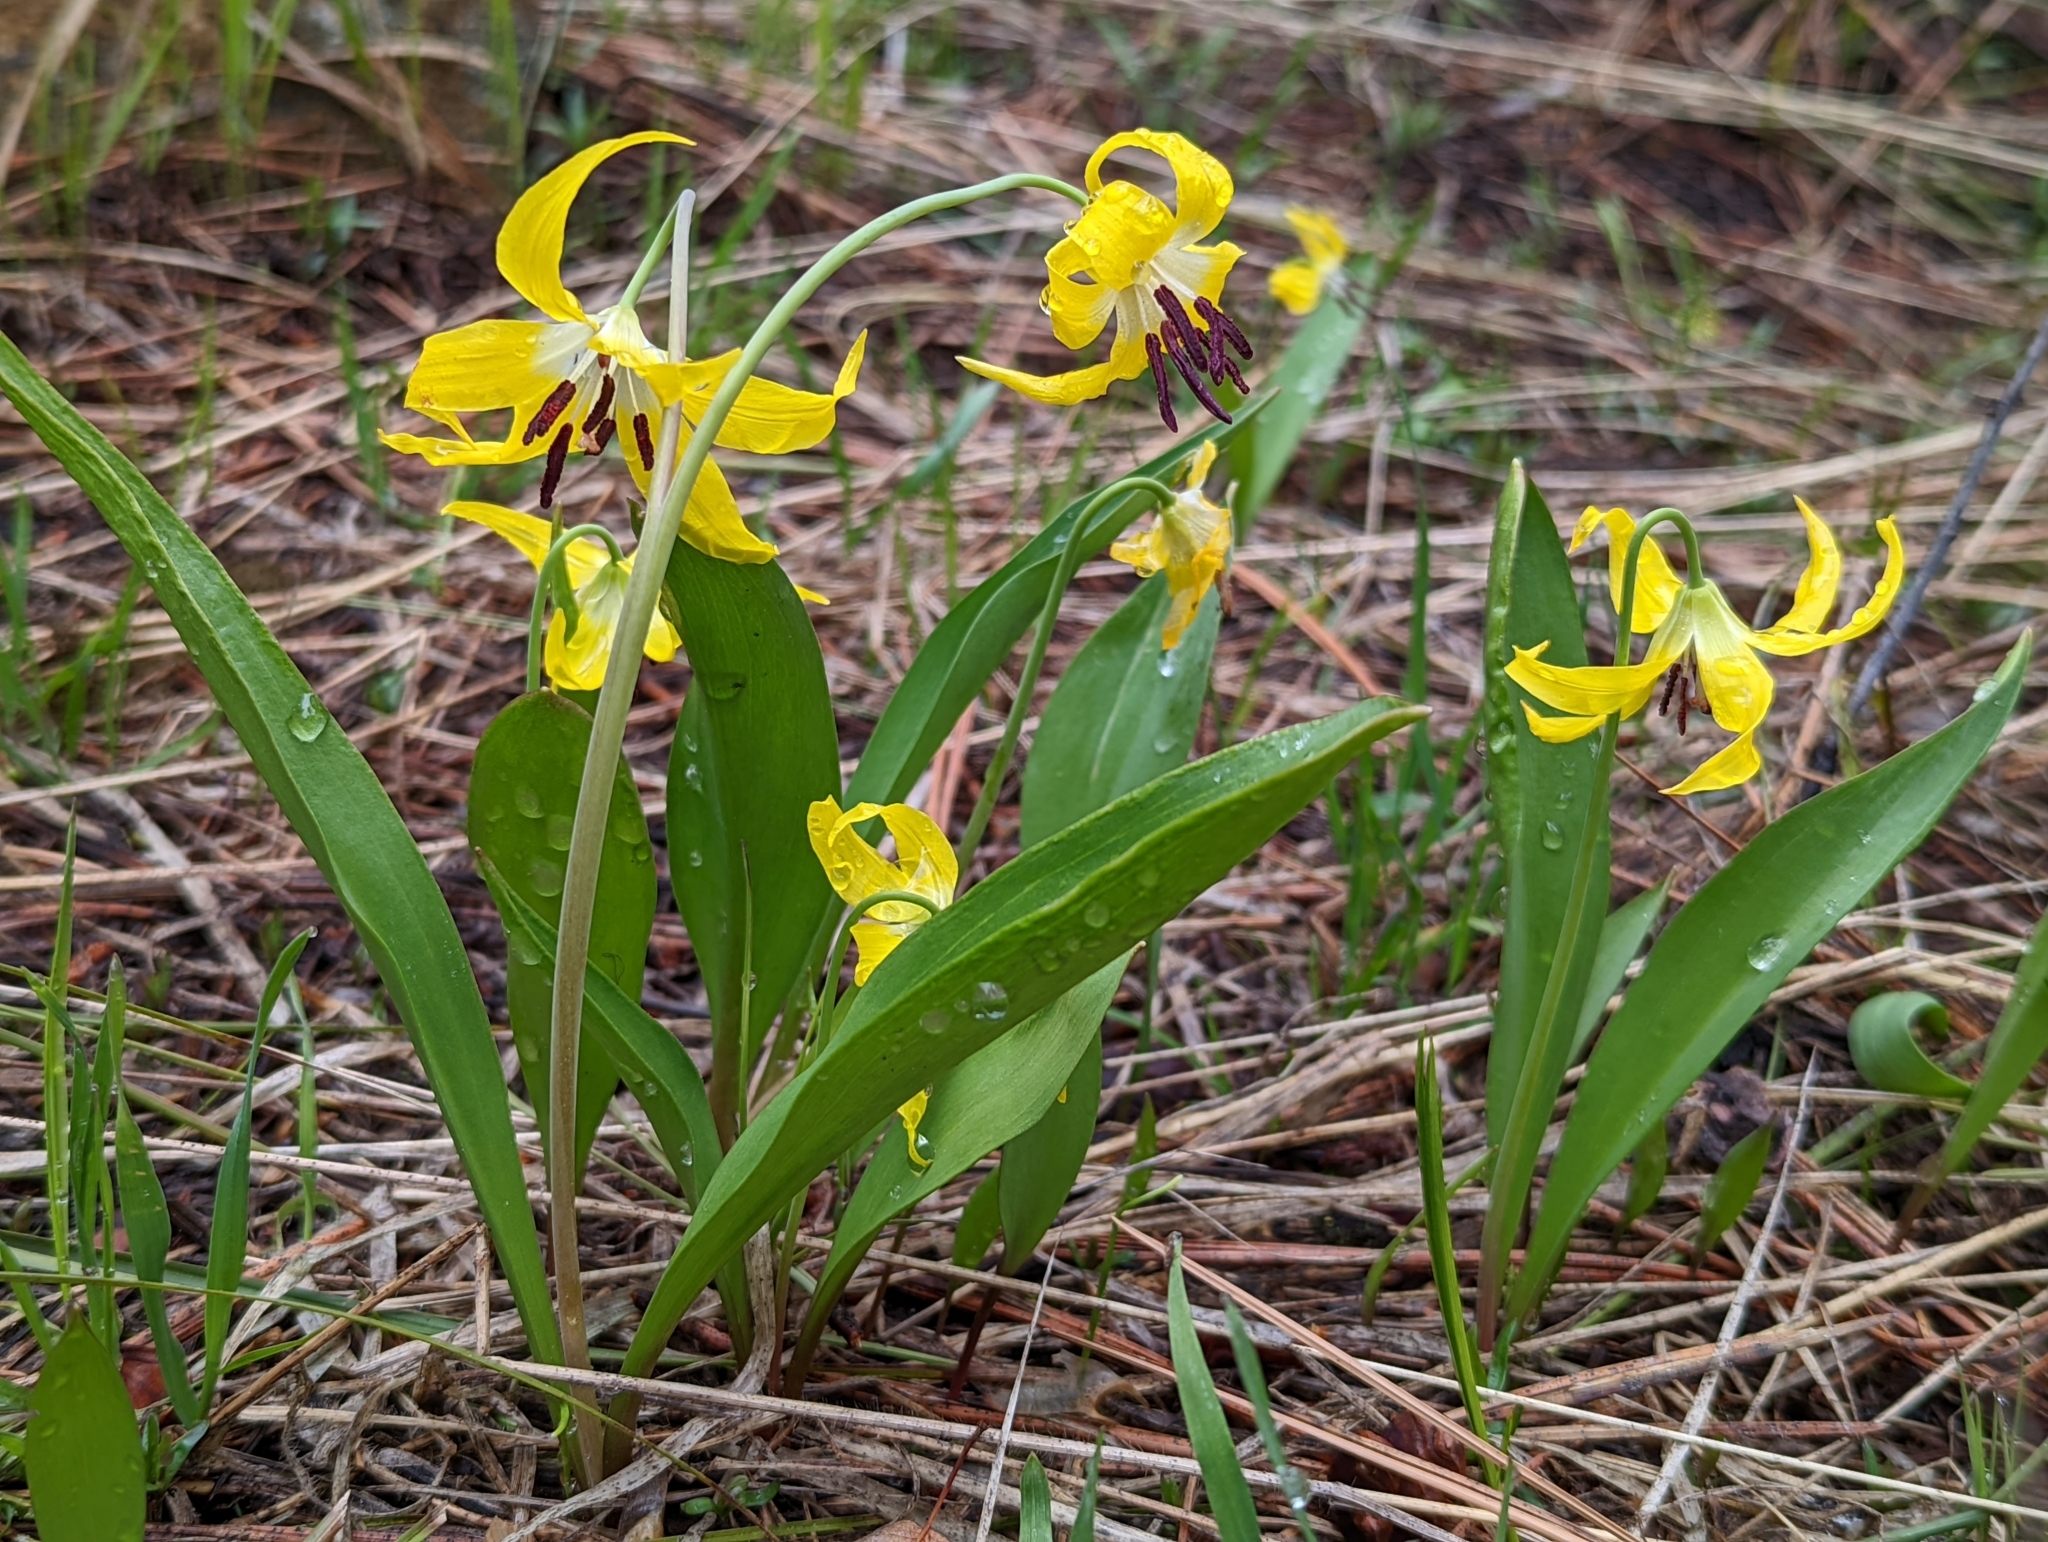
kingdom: Plantae
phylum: Tracheophyta
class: Liliopsida
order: Liliales
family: Liliaceae
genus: Erythronium
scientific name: Erythronium grandiflorum
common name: Avalanche-lily
